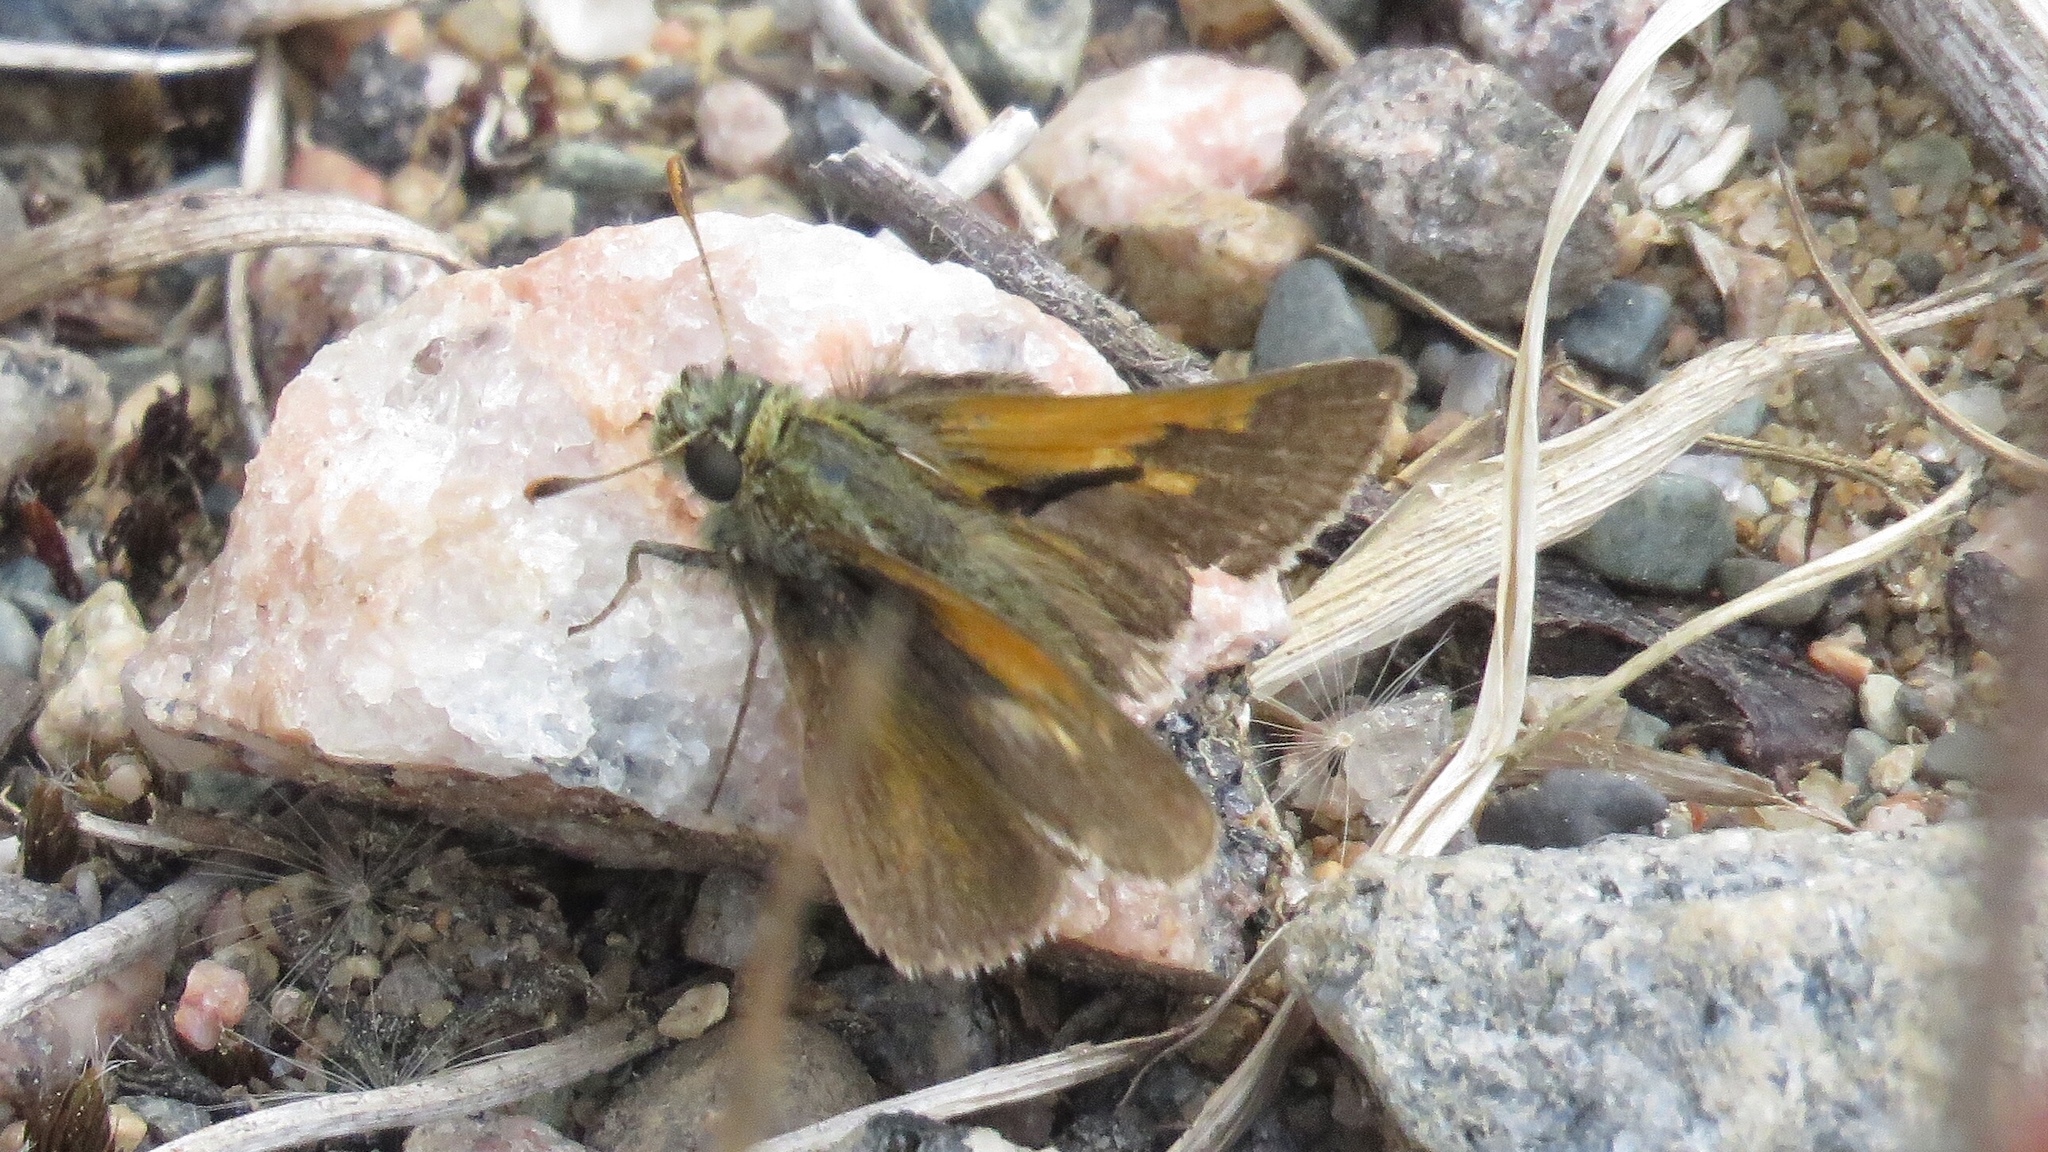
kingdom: Animalia
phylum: Arthropoda
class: Insecta
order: Lepidoptera
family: Hesperiidae
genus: Polites
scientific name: Polites themistocles
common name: Tawny-edged skipper
